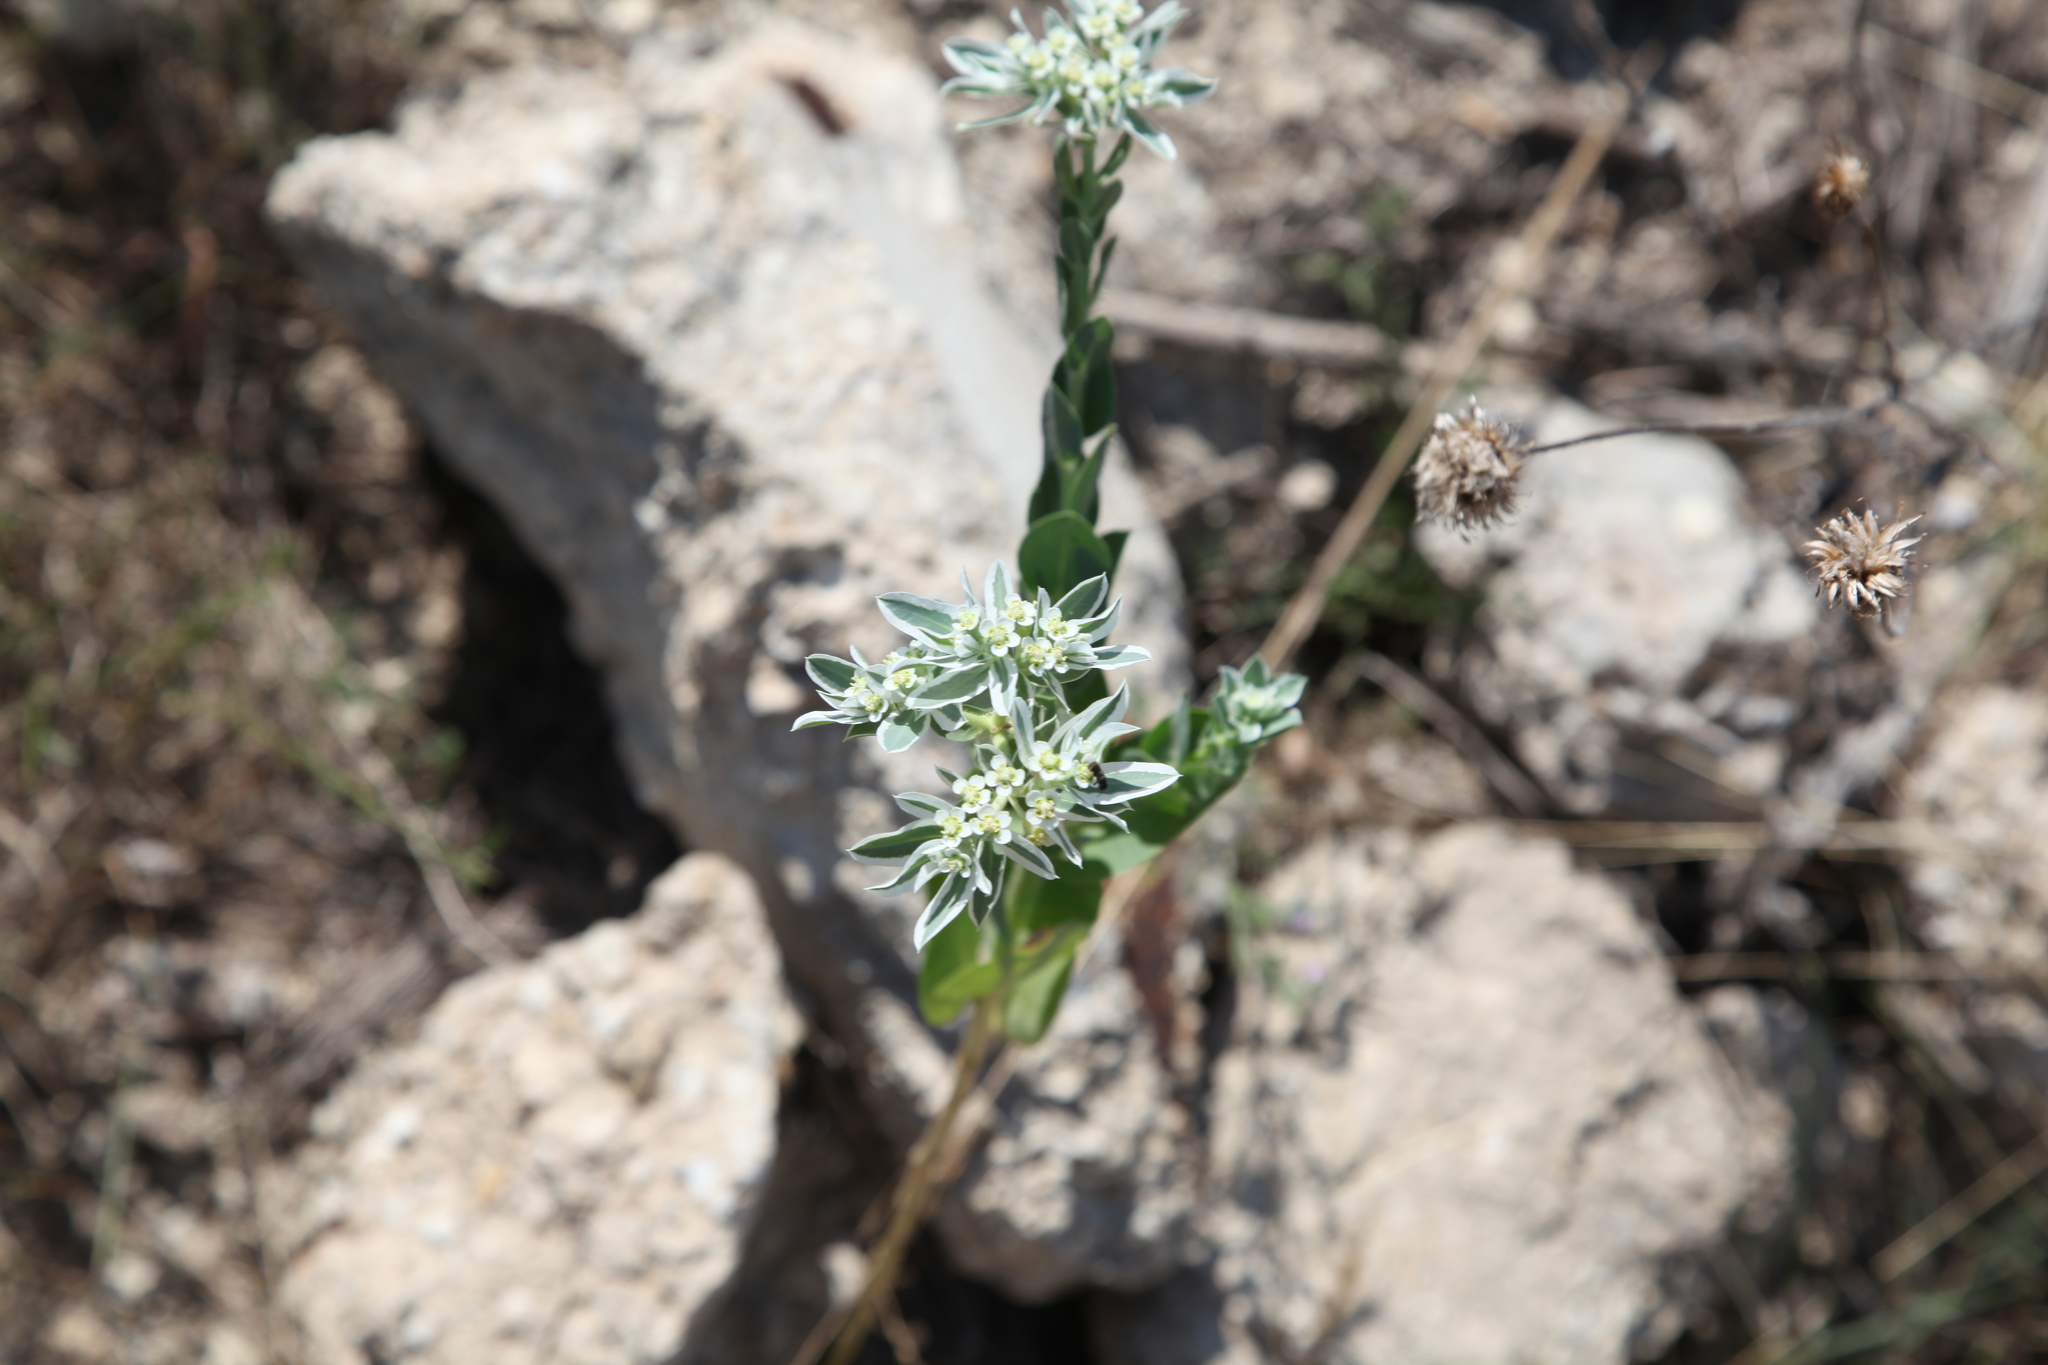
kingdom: Plantae
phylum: Tracheophyta
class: Magnoliopsida
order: Malpighiales
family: Euphorbiaceae
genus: Euphorbia
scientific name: Euphorbia marginata
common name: Ghostweed
